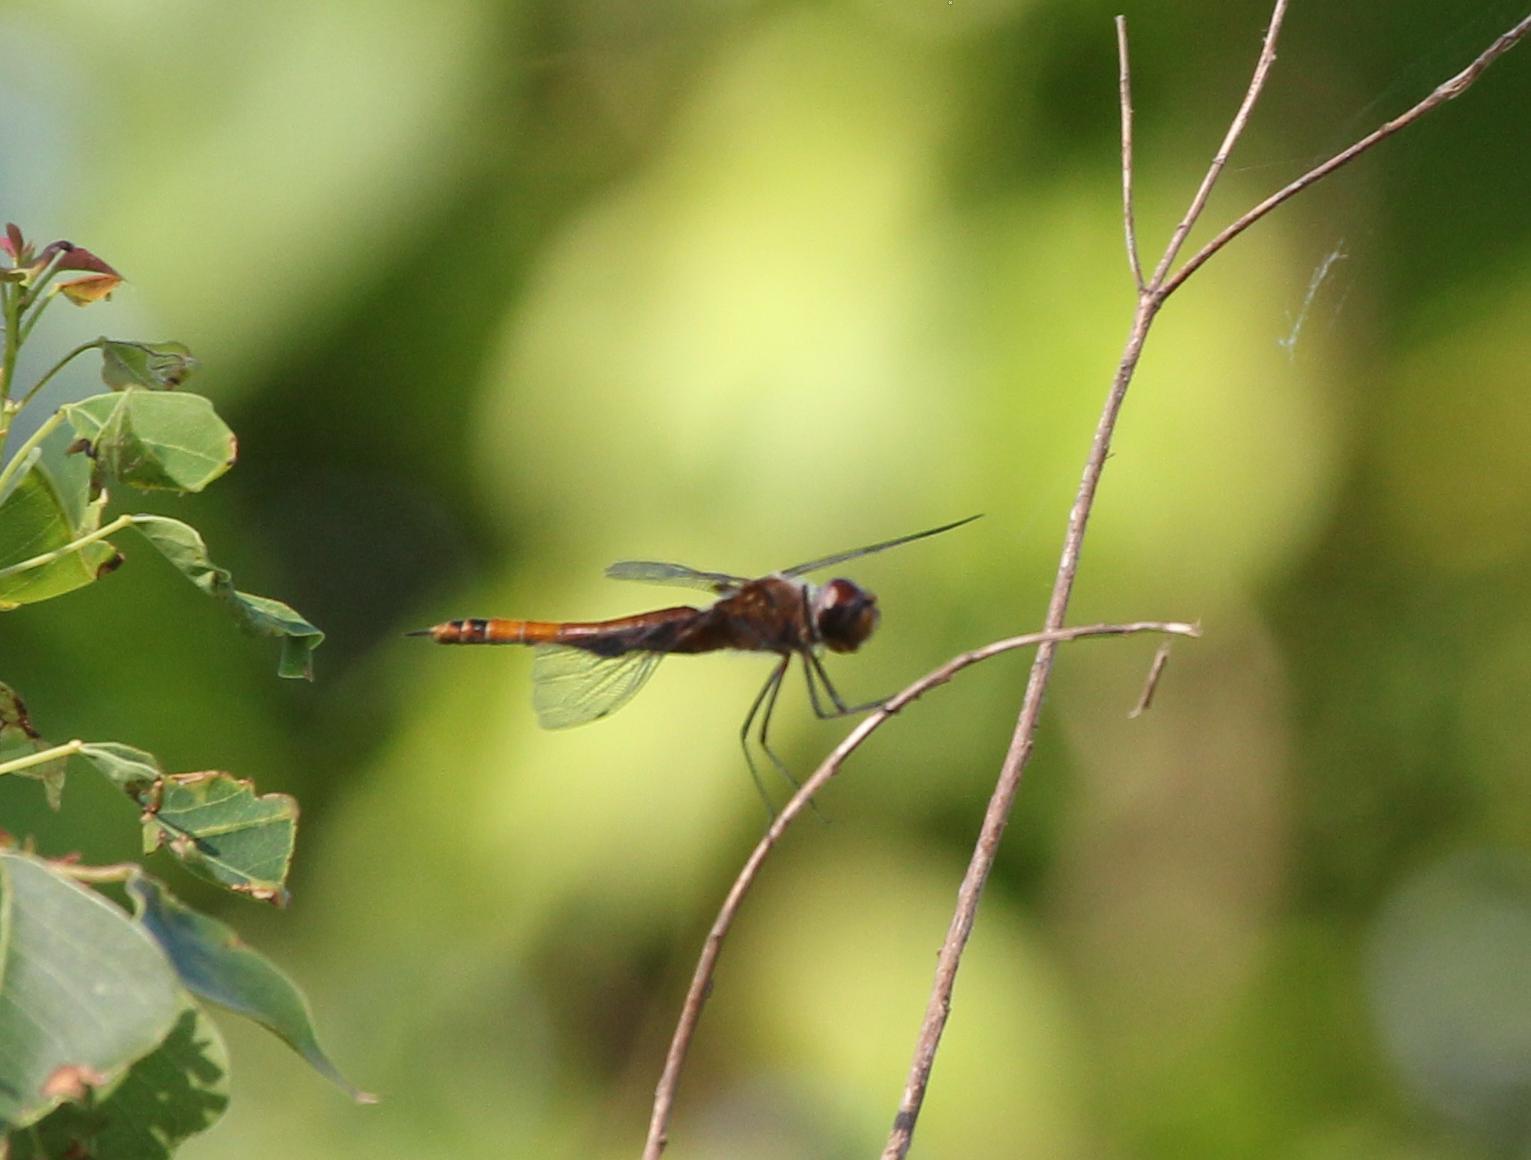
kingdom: Animalia
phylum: Arthropoda
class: Insecta
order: Odonata
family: Libellulidae
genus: Tramea
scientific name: Tramea carolina
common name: Carolina saddlebags
